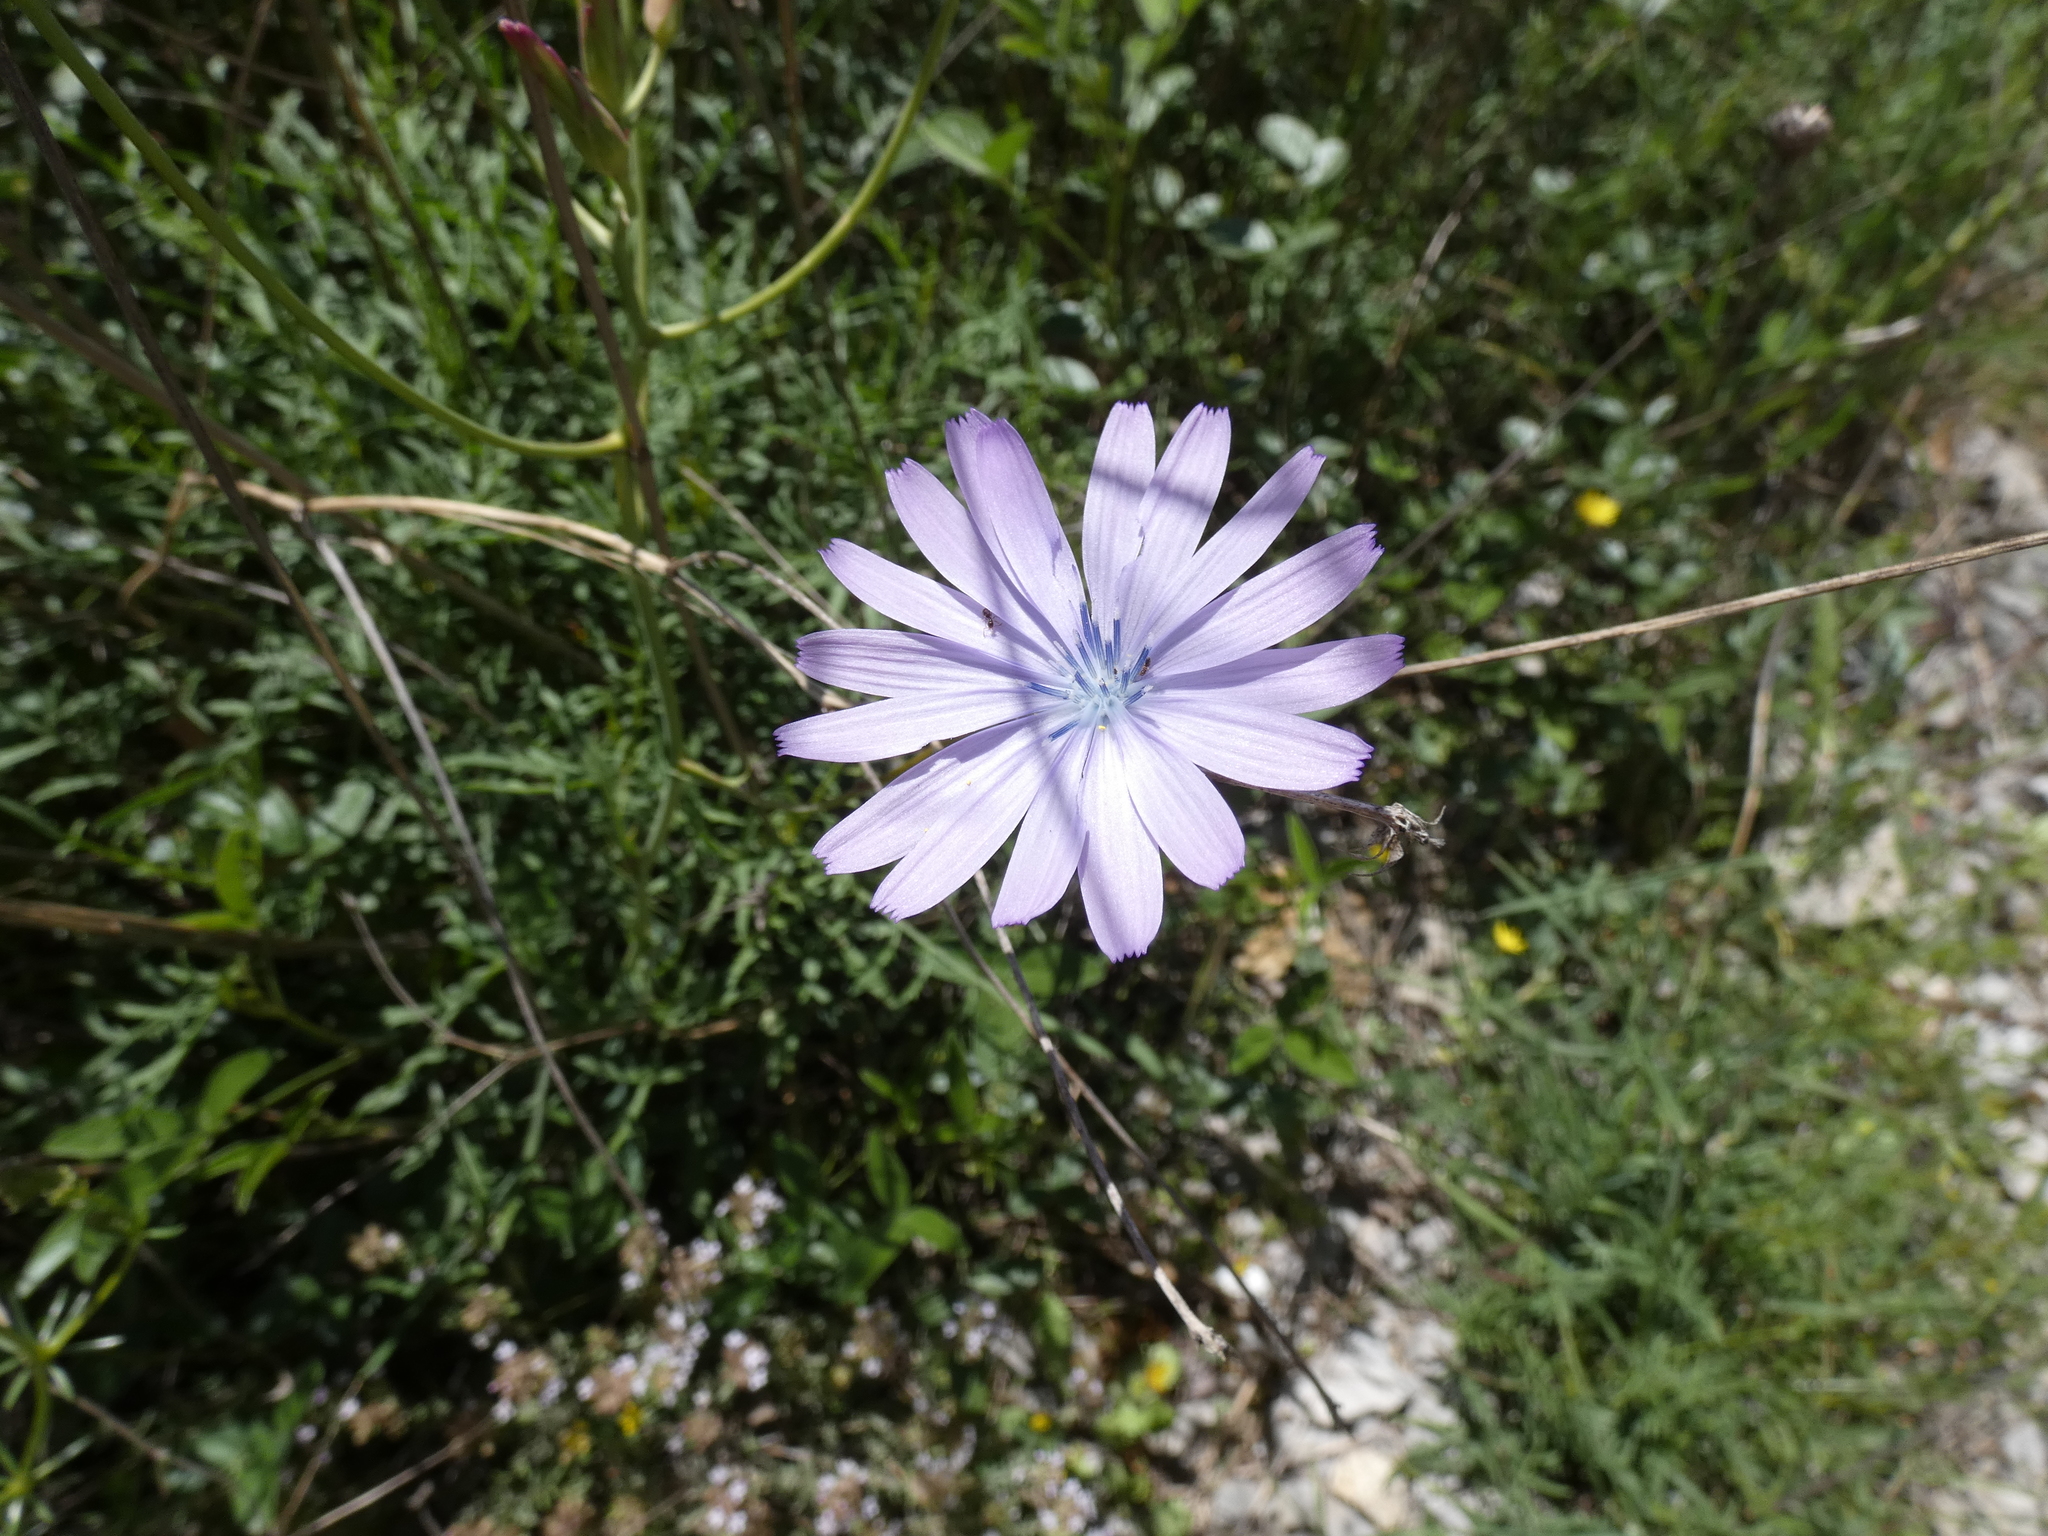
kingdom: Plantae
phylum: Tracheophyta
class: Magnoliopsida
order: Asterales
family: Asteraceae
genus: Lactuca
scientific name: Lactuca perennis
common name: Mountain lettuce
